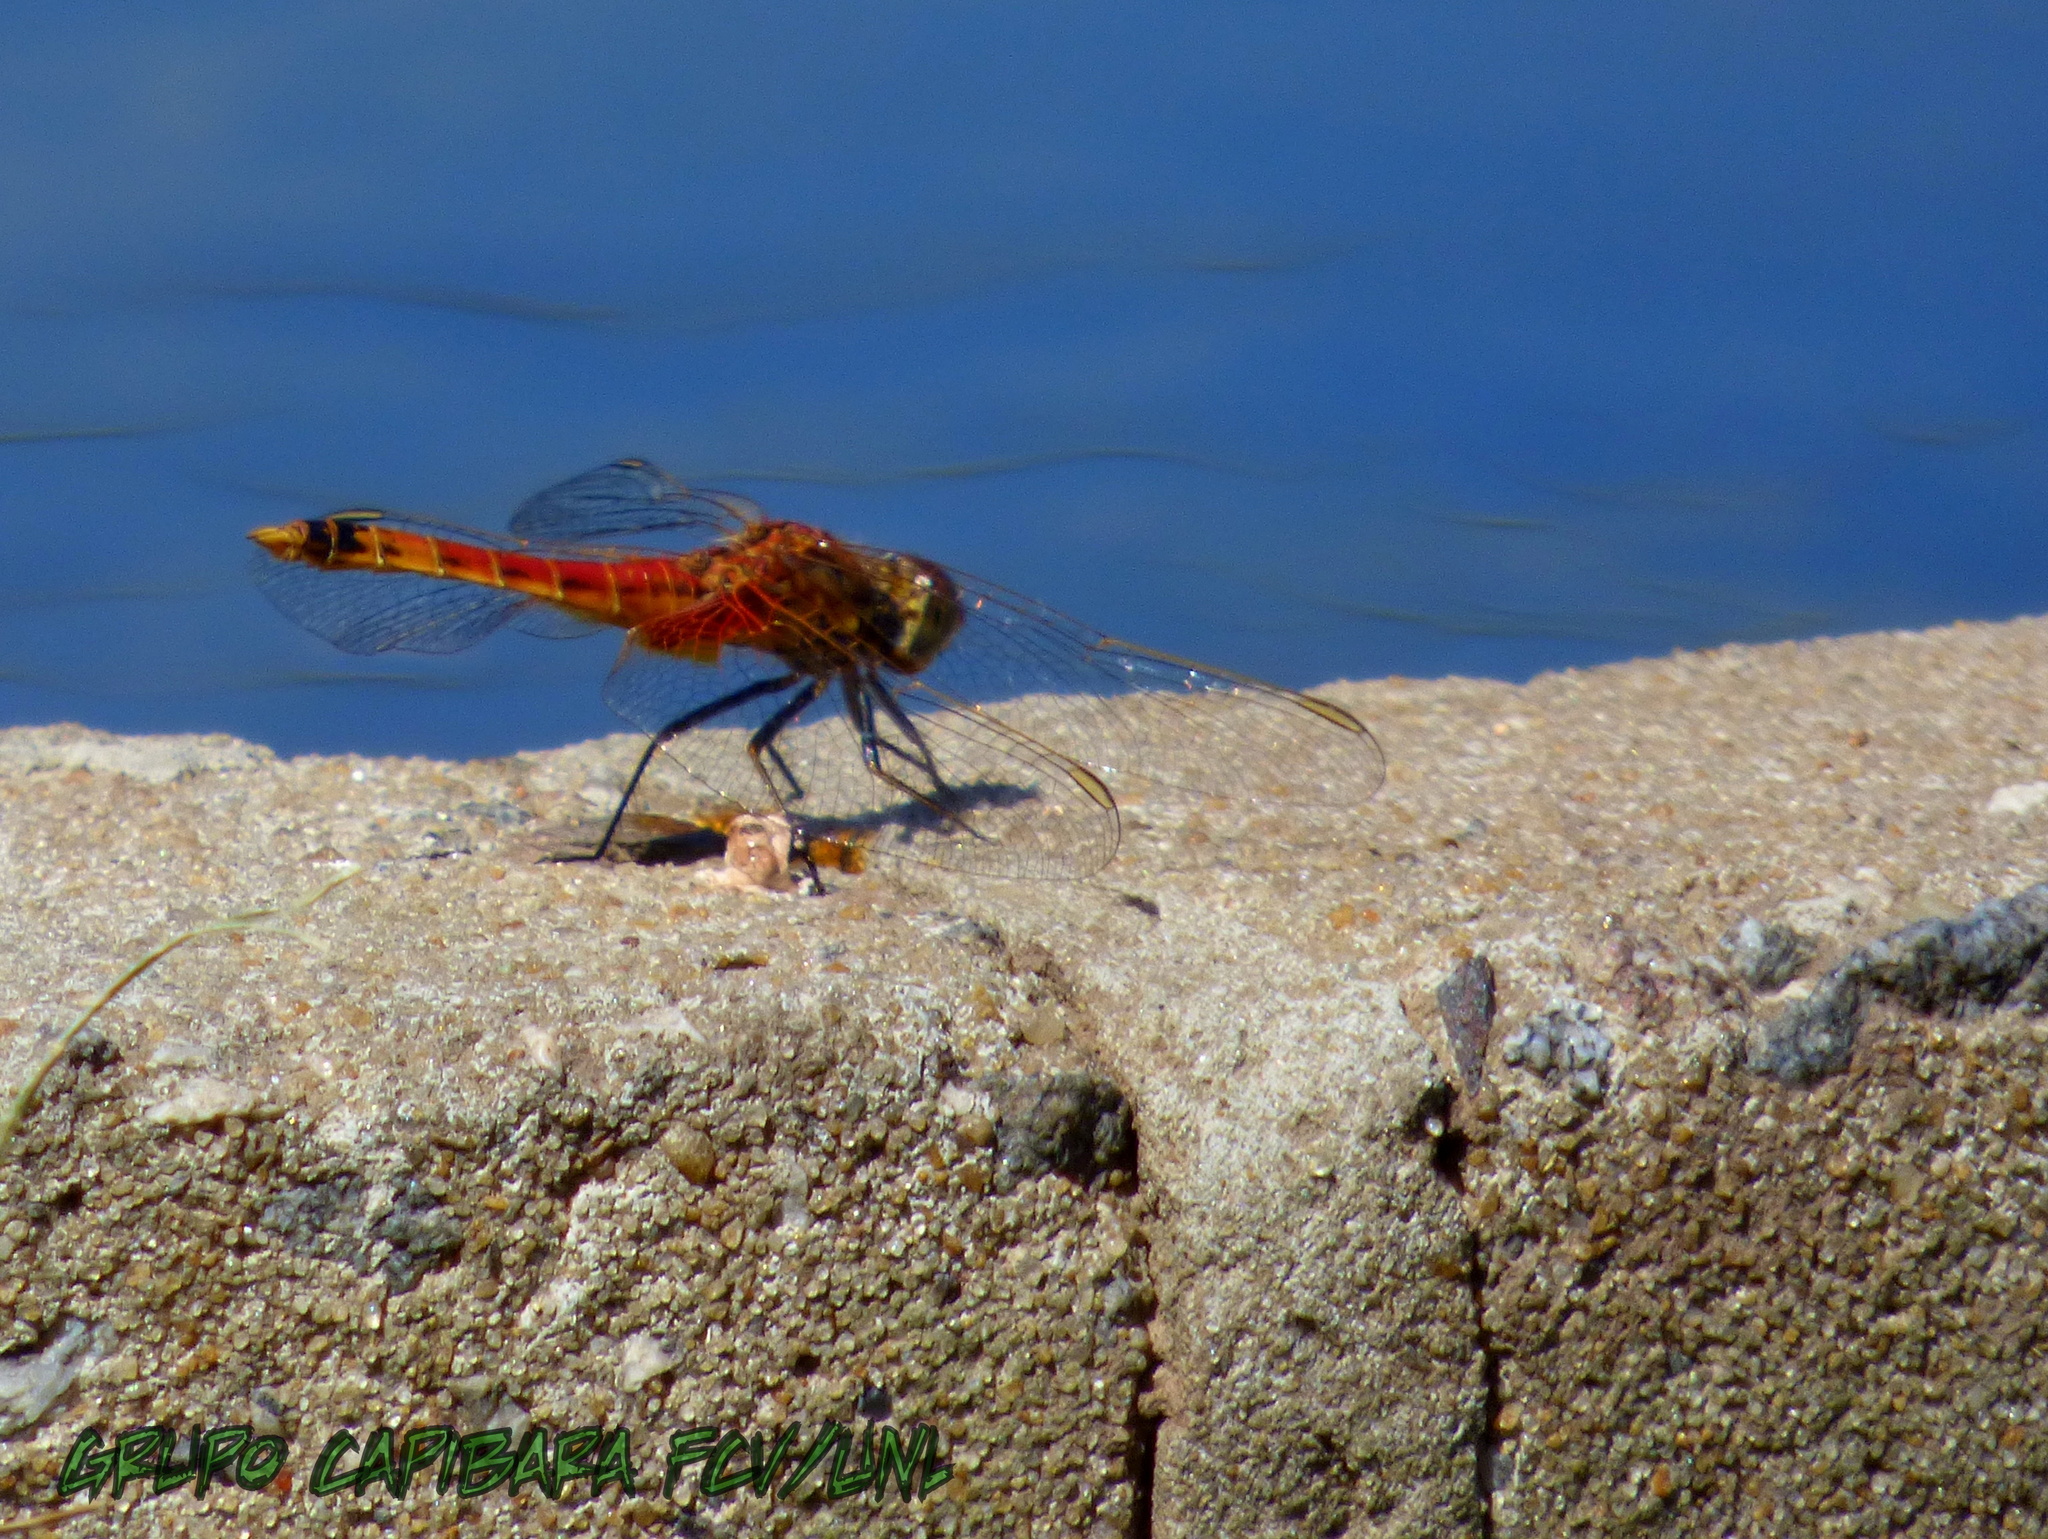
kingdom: Animalia
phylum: Arthropoda
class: Insecta
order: Odonata
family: Libellulidae
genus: Erythrodiplax
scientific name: Erythrodiplax corallina
